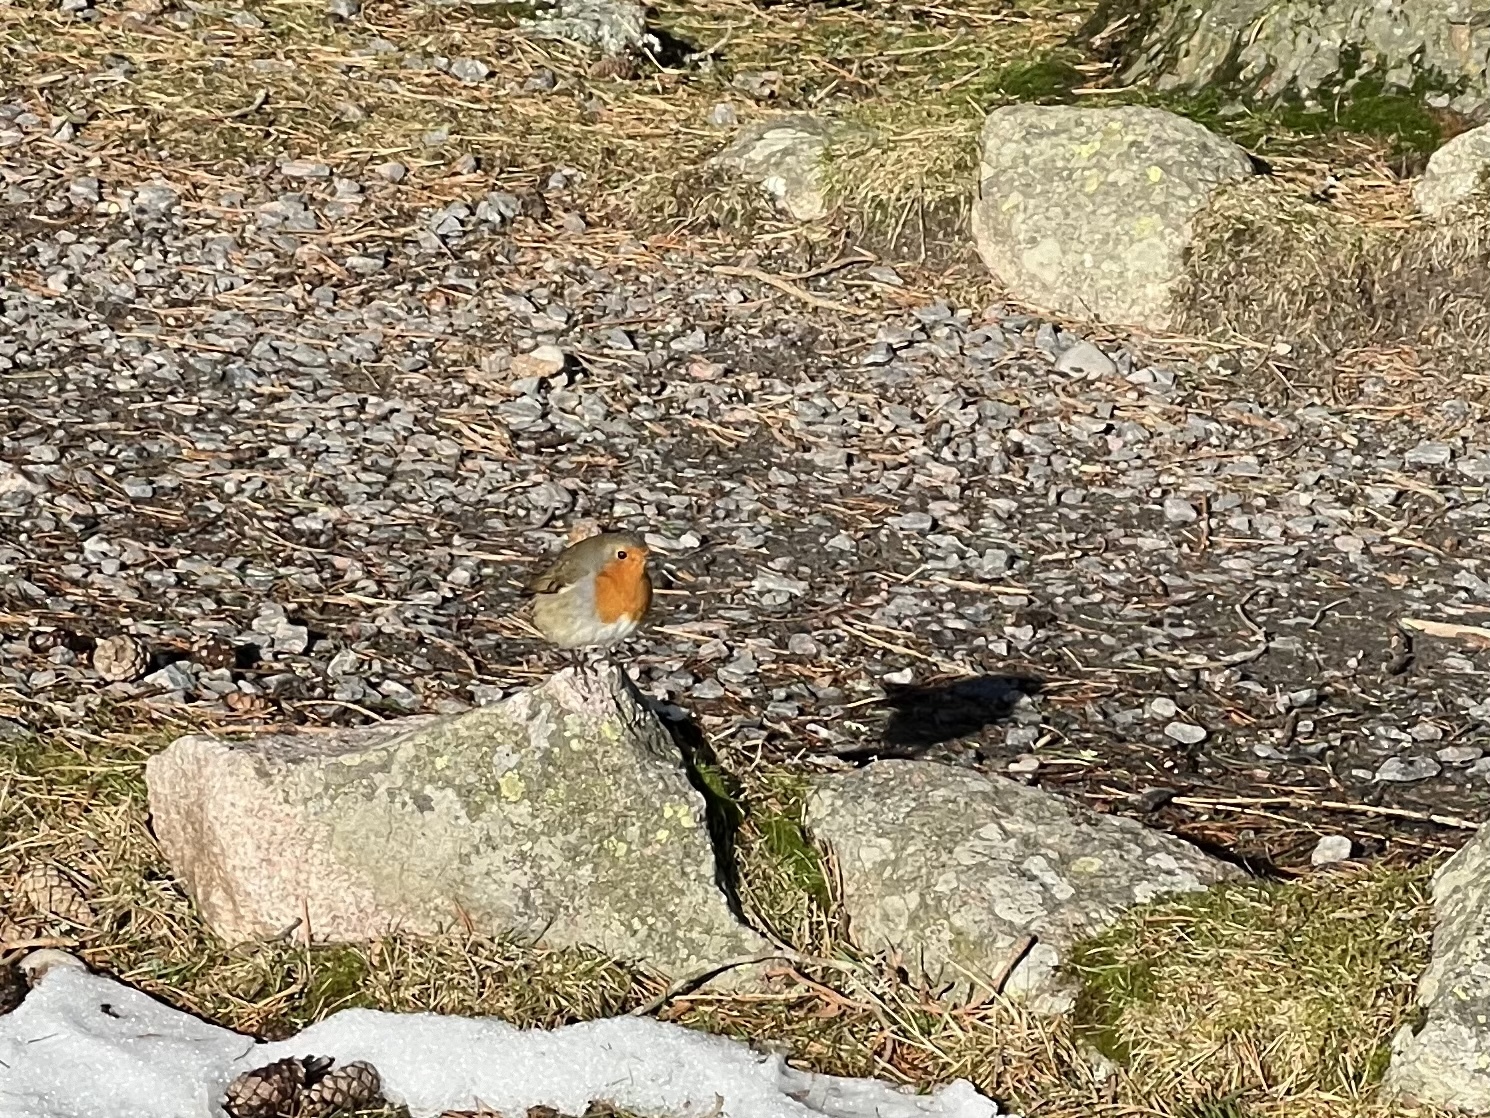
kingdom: Animalia
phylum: Chordata
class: Aves
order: Passeriformes
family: Muscicapidae
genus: Erithacus
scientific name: Erithacus rubecula
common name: European robin
